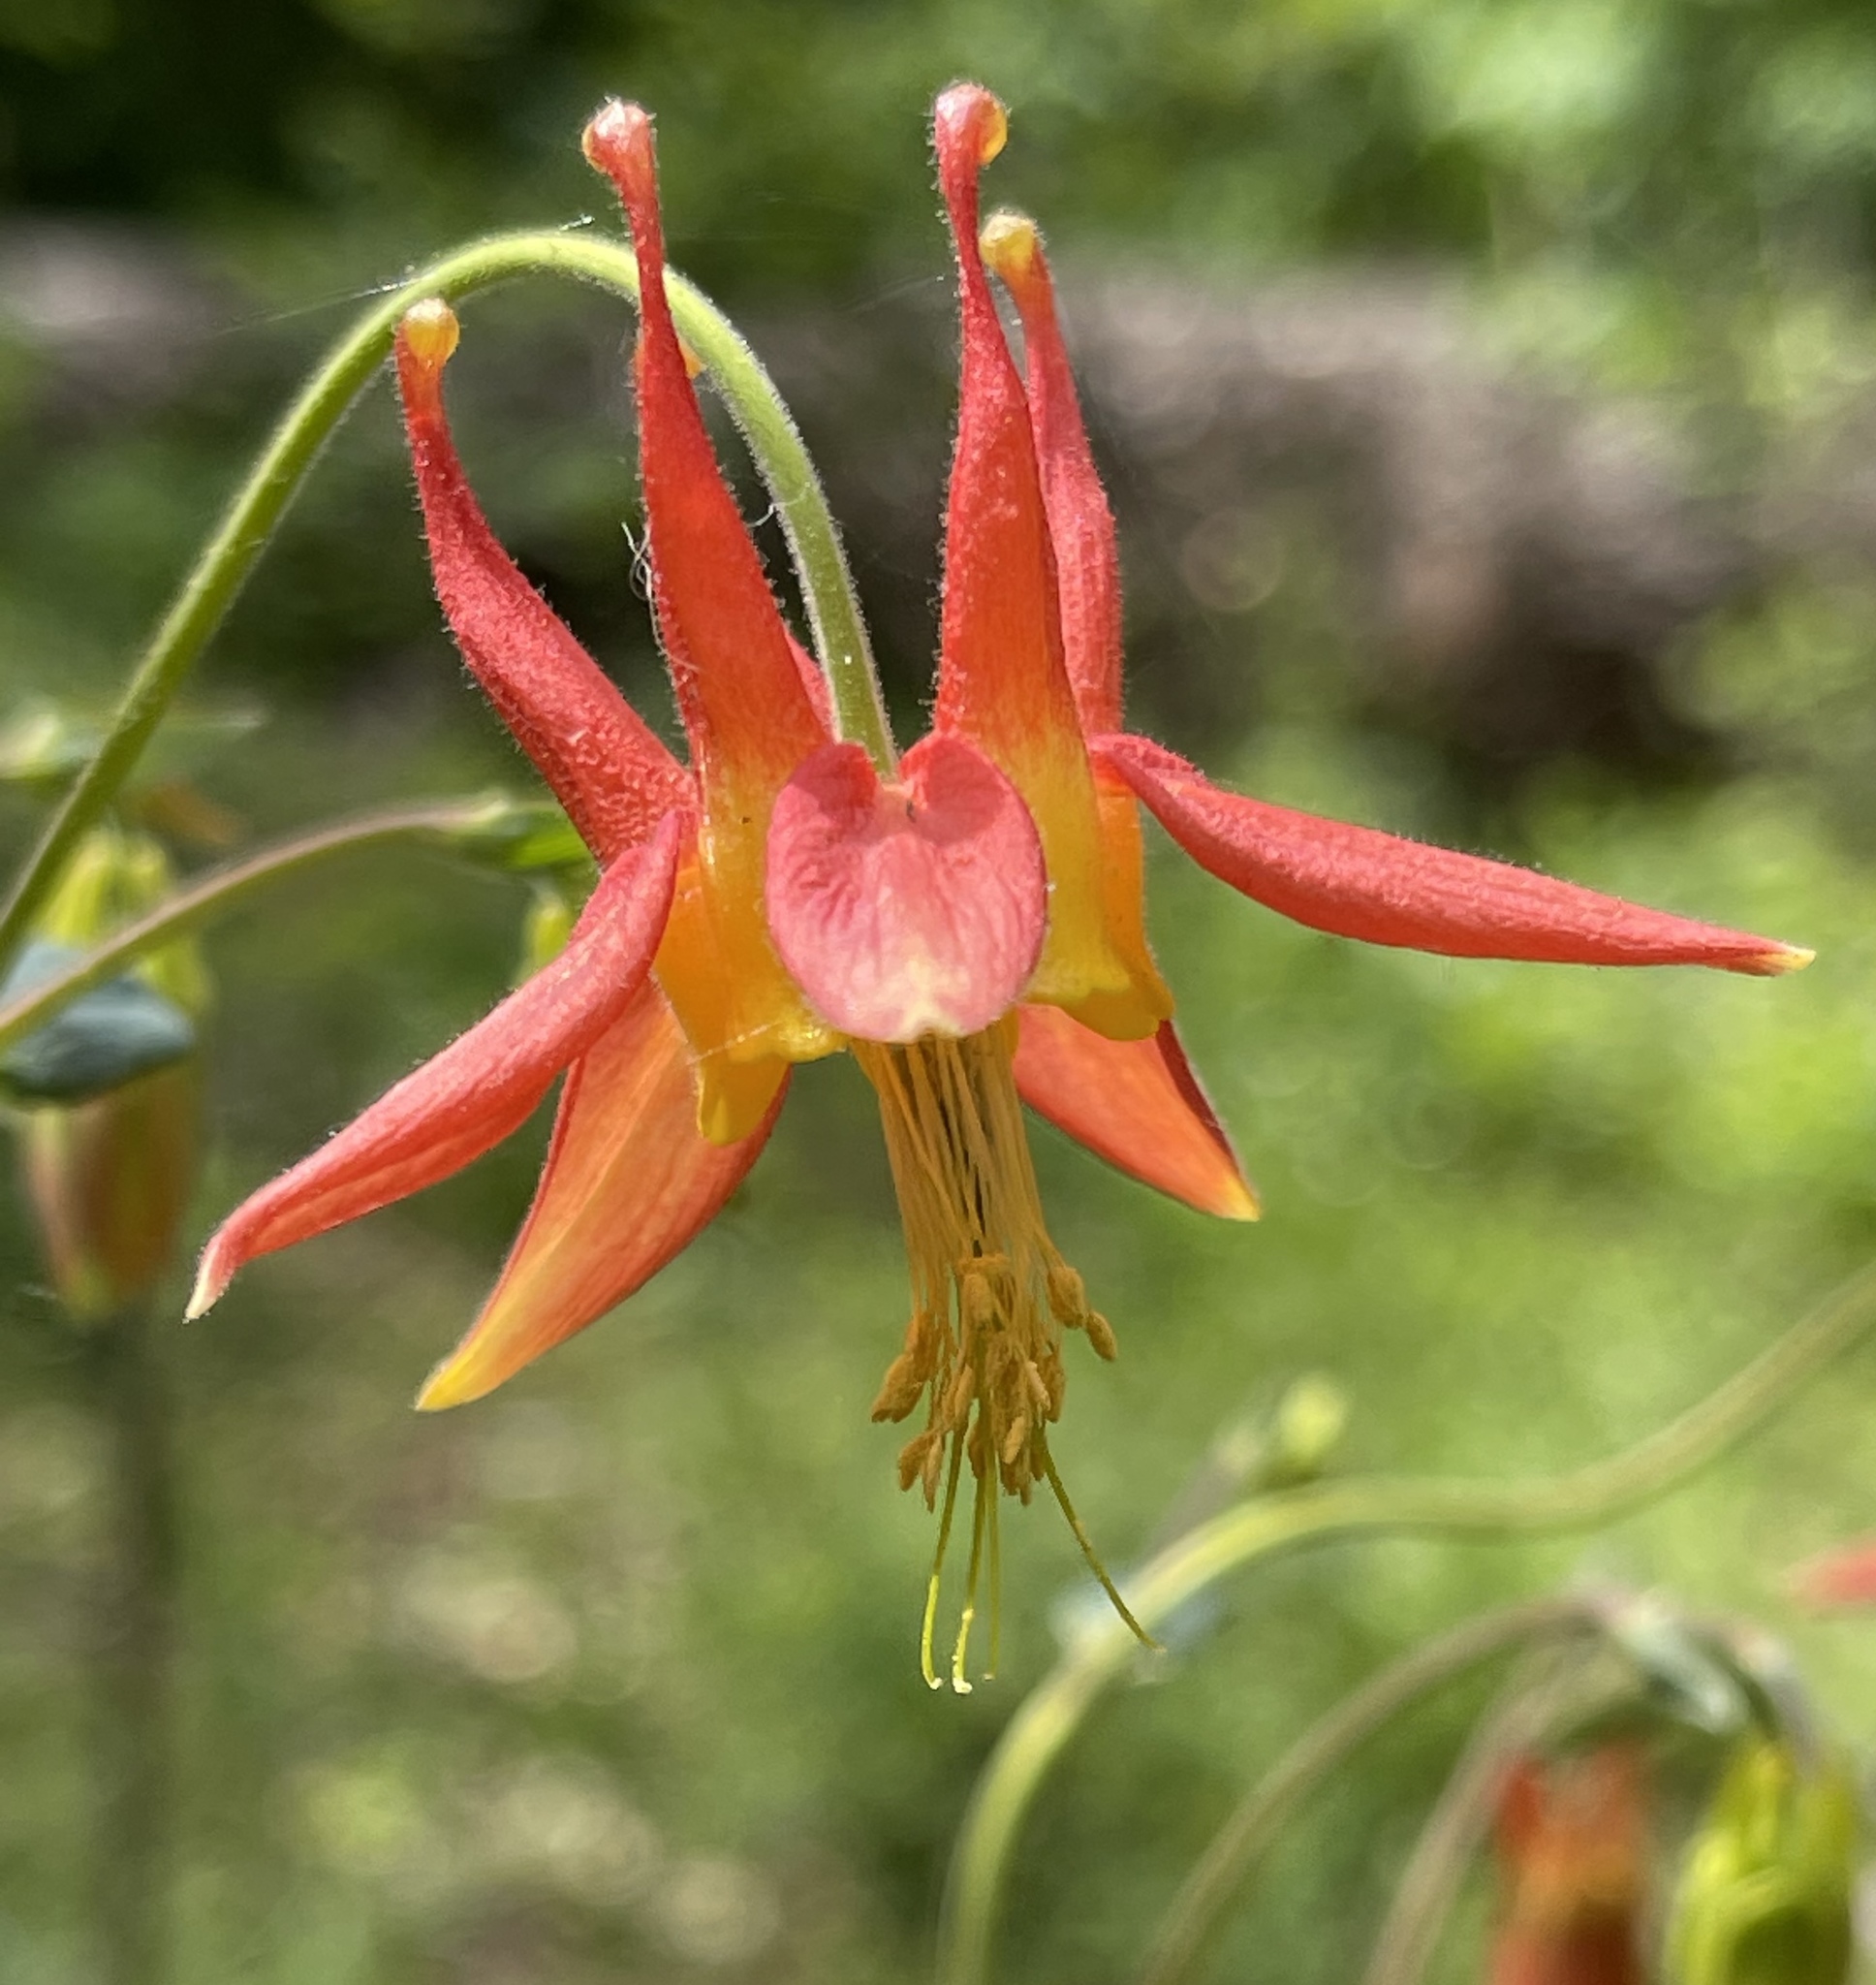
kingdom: Plantae
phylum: Tracheophyta
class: Magnoliopsida
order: Ranunculales
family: Ranunculaceae
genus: Aquilegia
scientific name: Aquilegia formosa
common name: Sitka columbine
